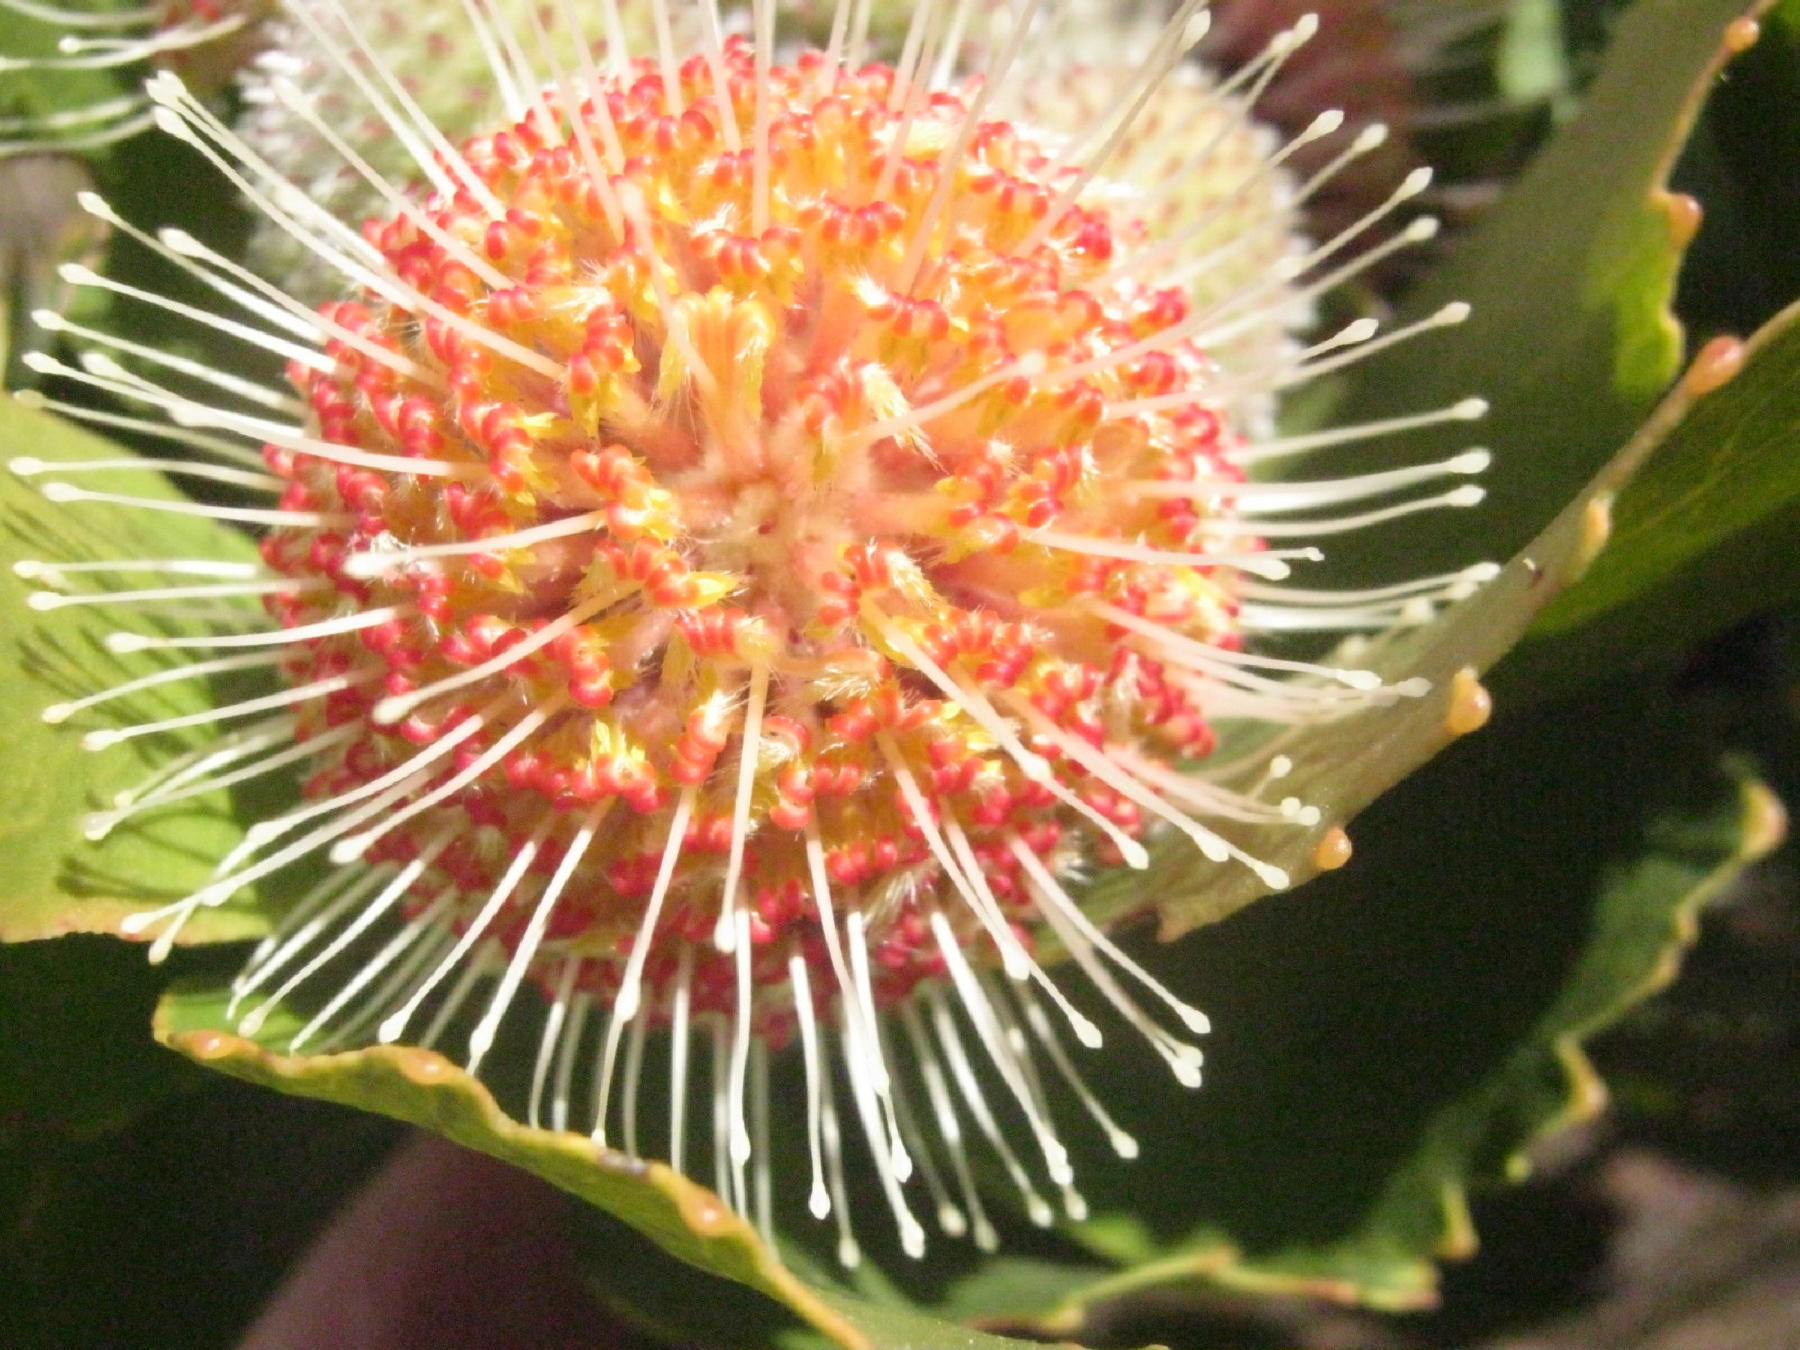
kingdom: Plantae
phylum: Tracheophyta
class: Magnoliopsida
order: Proteales
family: Proteaceae
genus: Leucospermum
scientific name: Leucospermum winteri
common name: Riversdale pincushion
